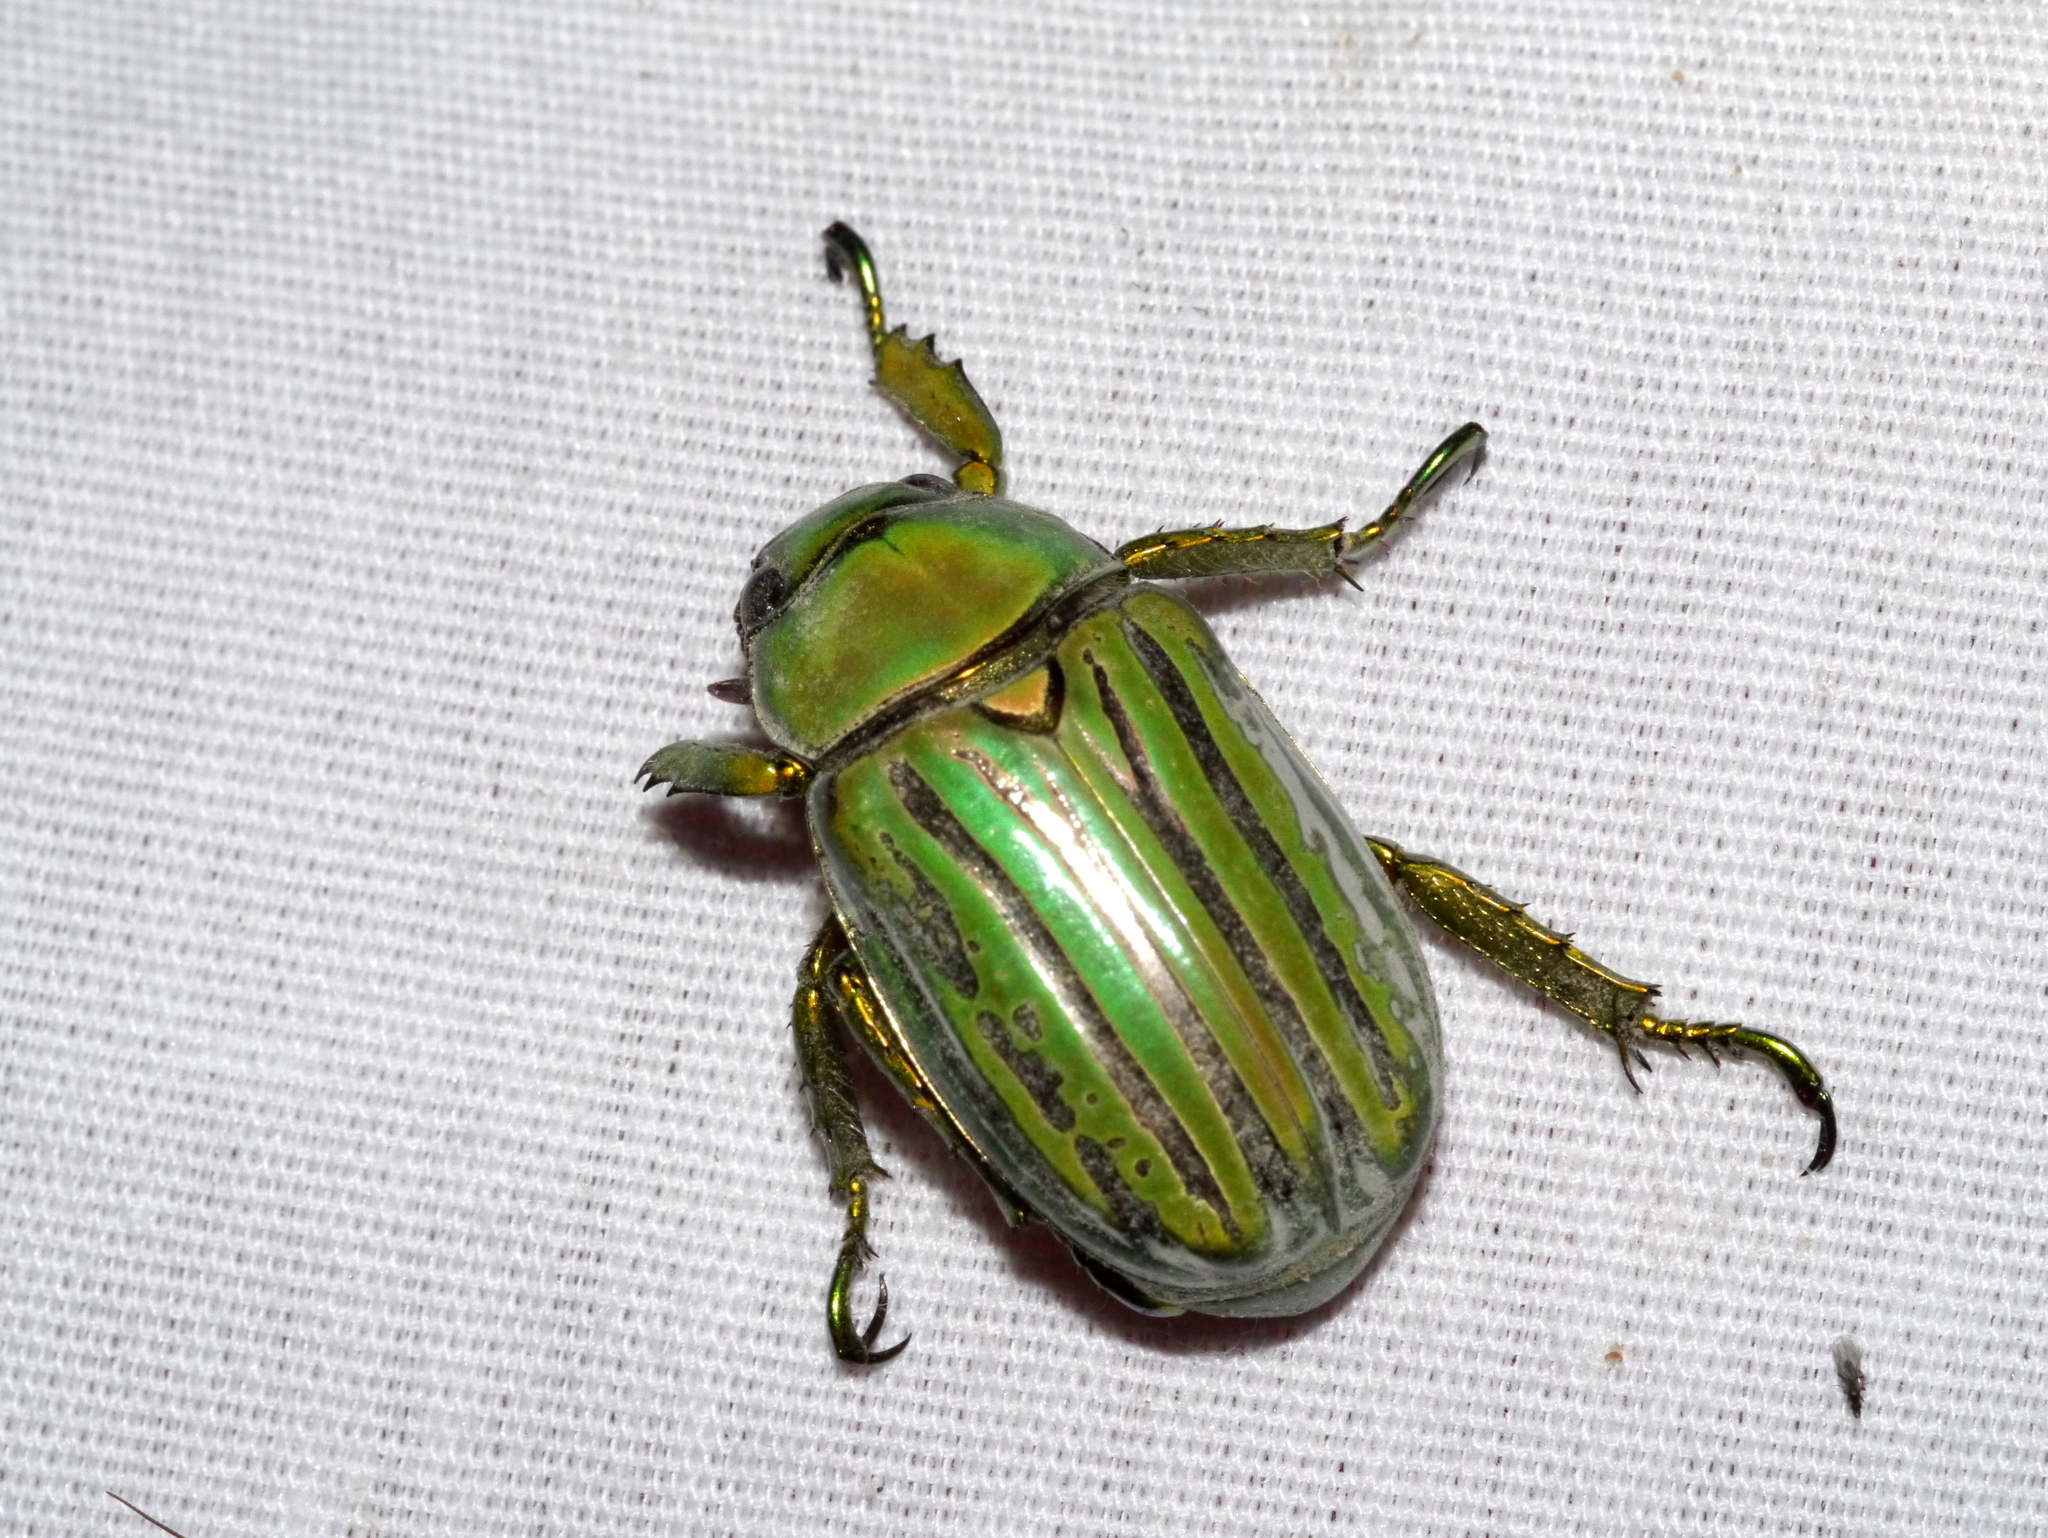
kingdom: Animalia
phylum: Arthropoda
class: Insecta
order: Coleoptera
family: Scarabaeidae
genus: Chrysina
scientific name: Chrysina gloriosa
